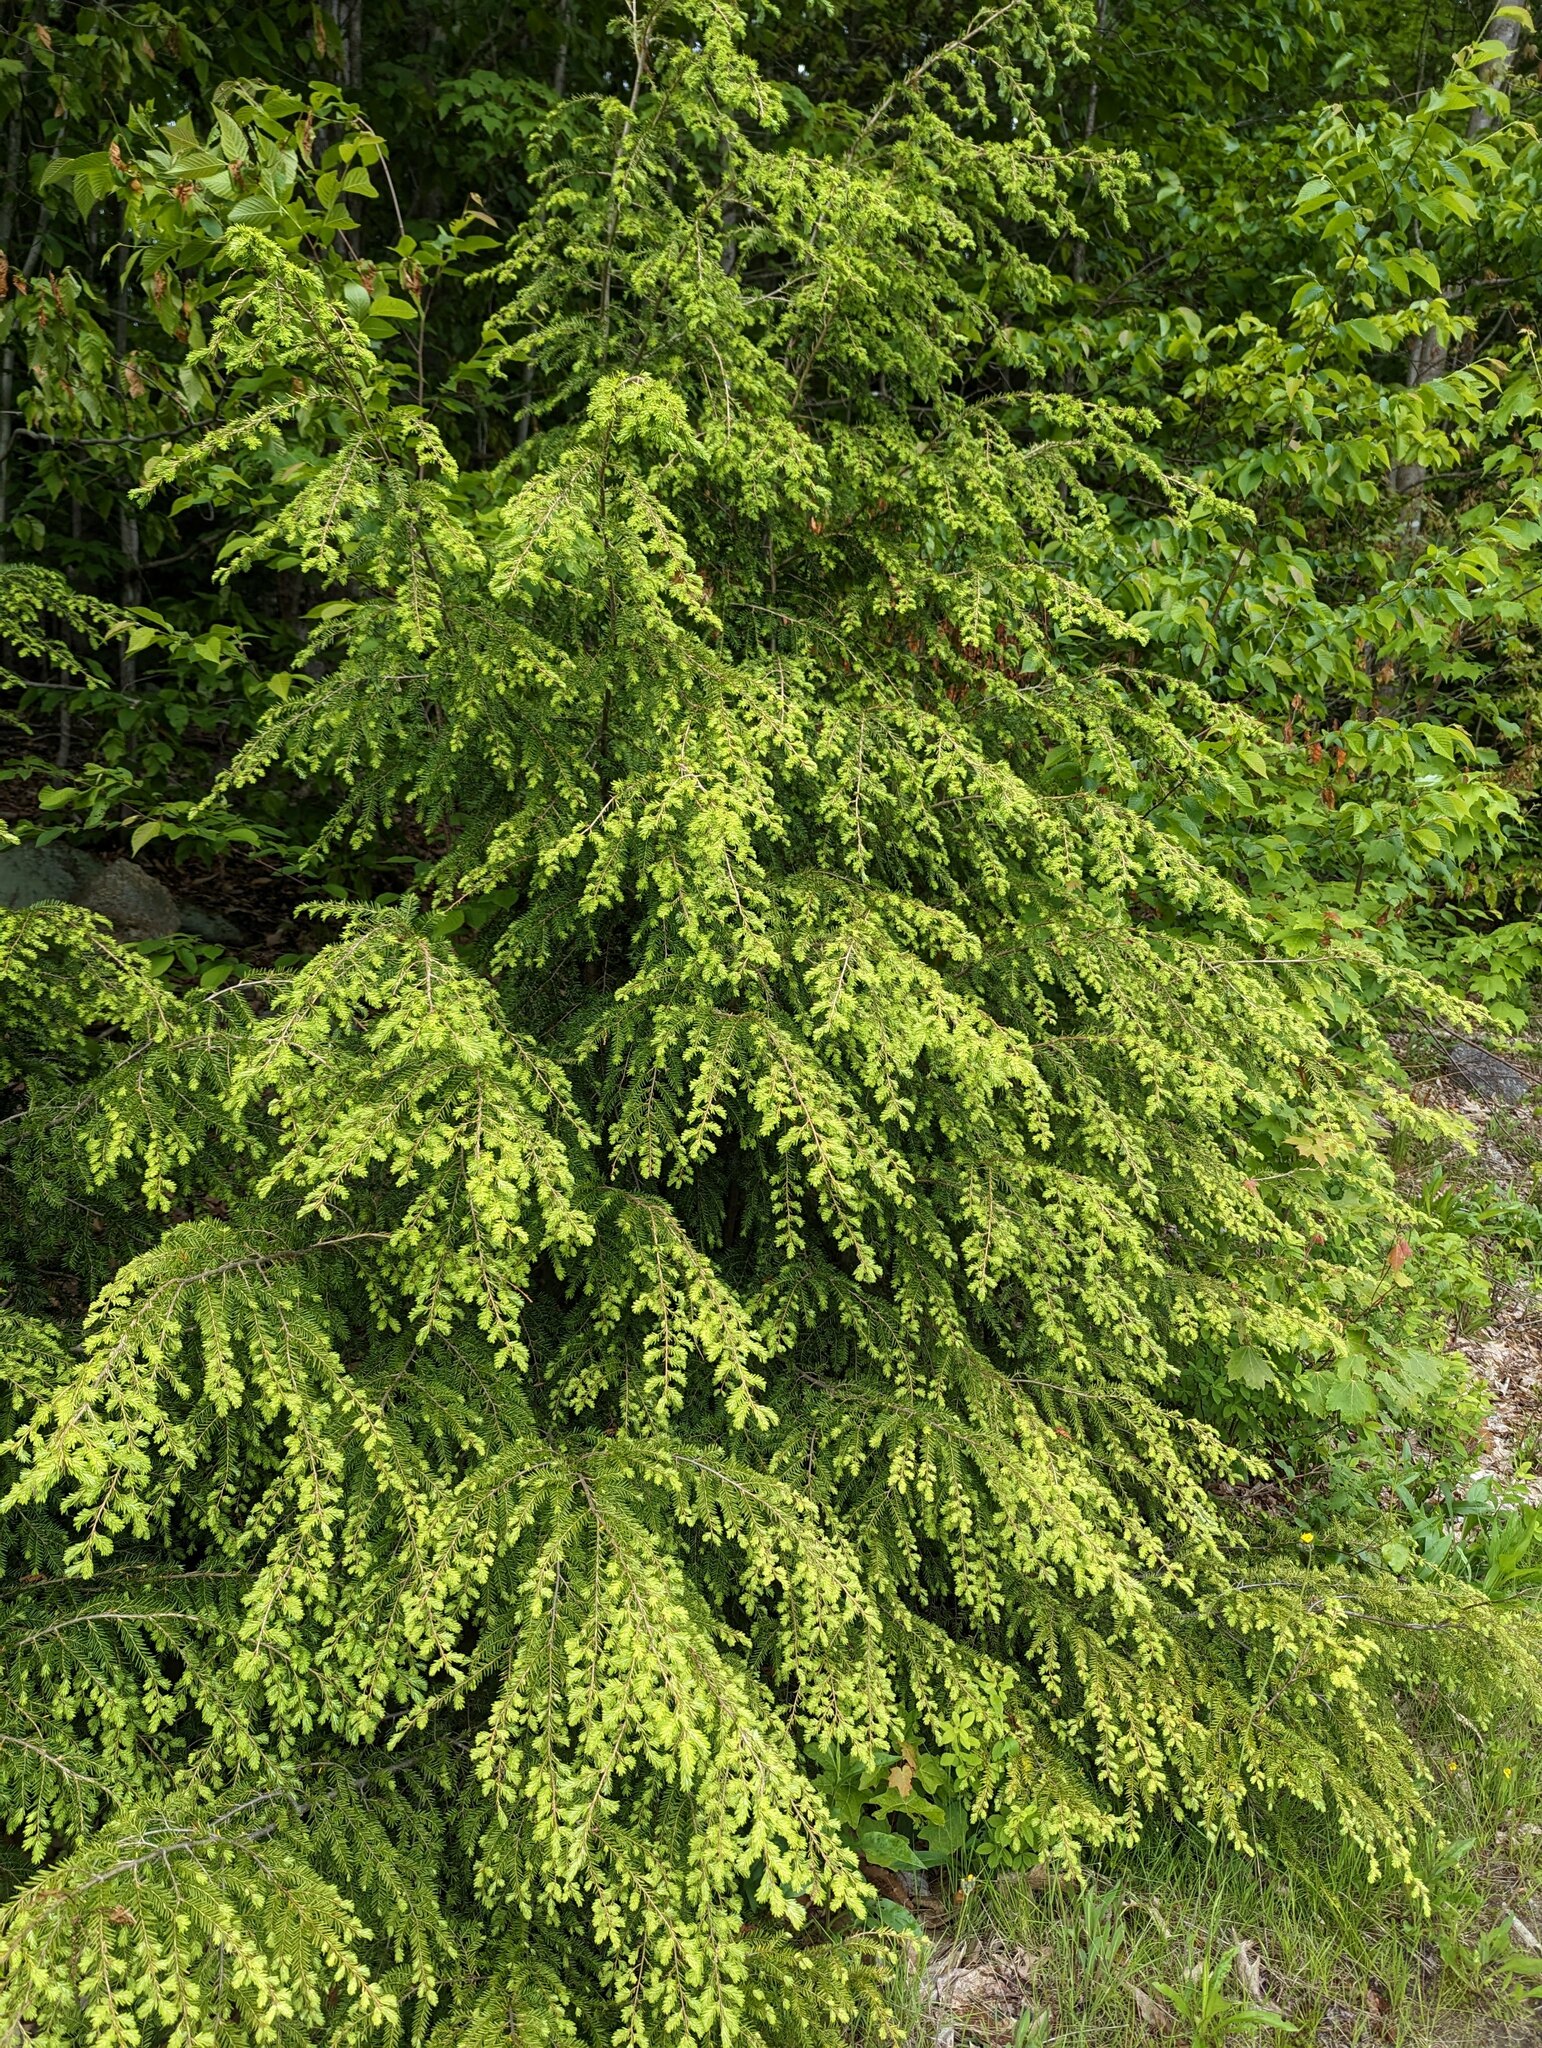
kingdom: Plantae
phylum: Tracheophyta
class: Pinopsida
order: Pinales
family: Pinaceae
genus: Tsuga
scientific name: Tsuga canadensis
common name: Eastern hemlock
